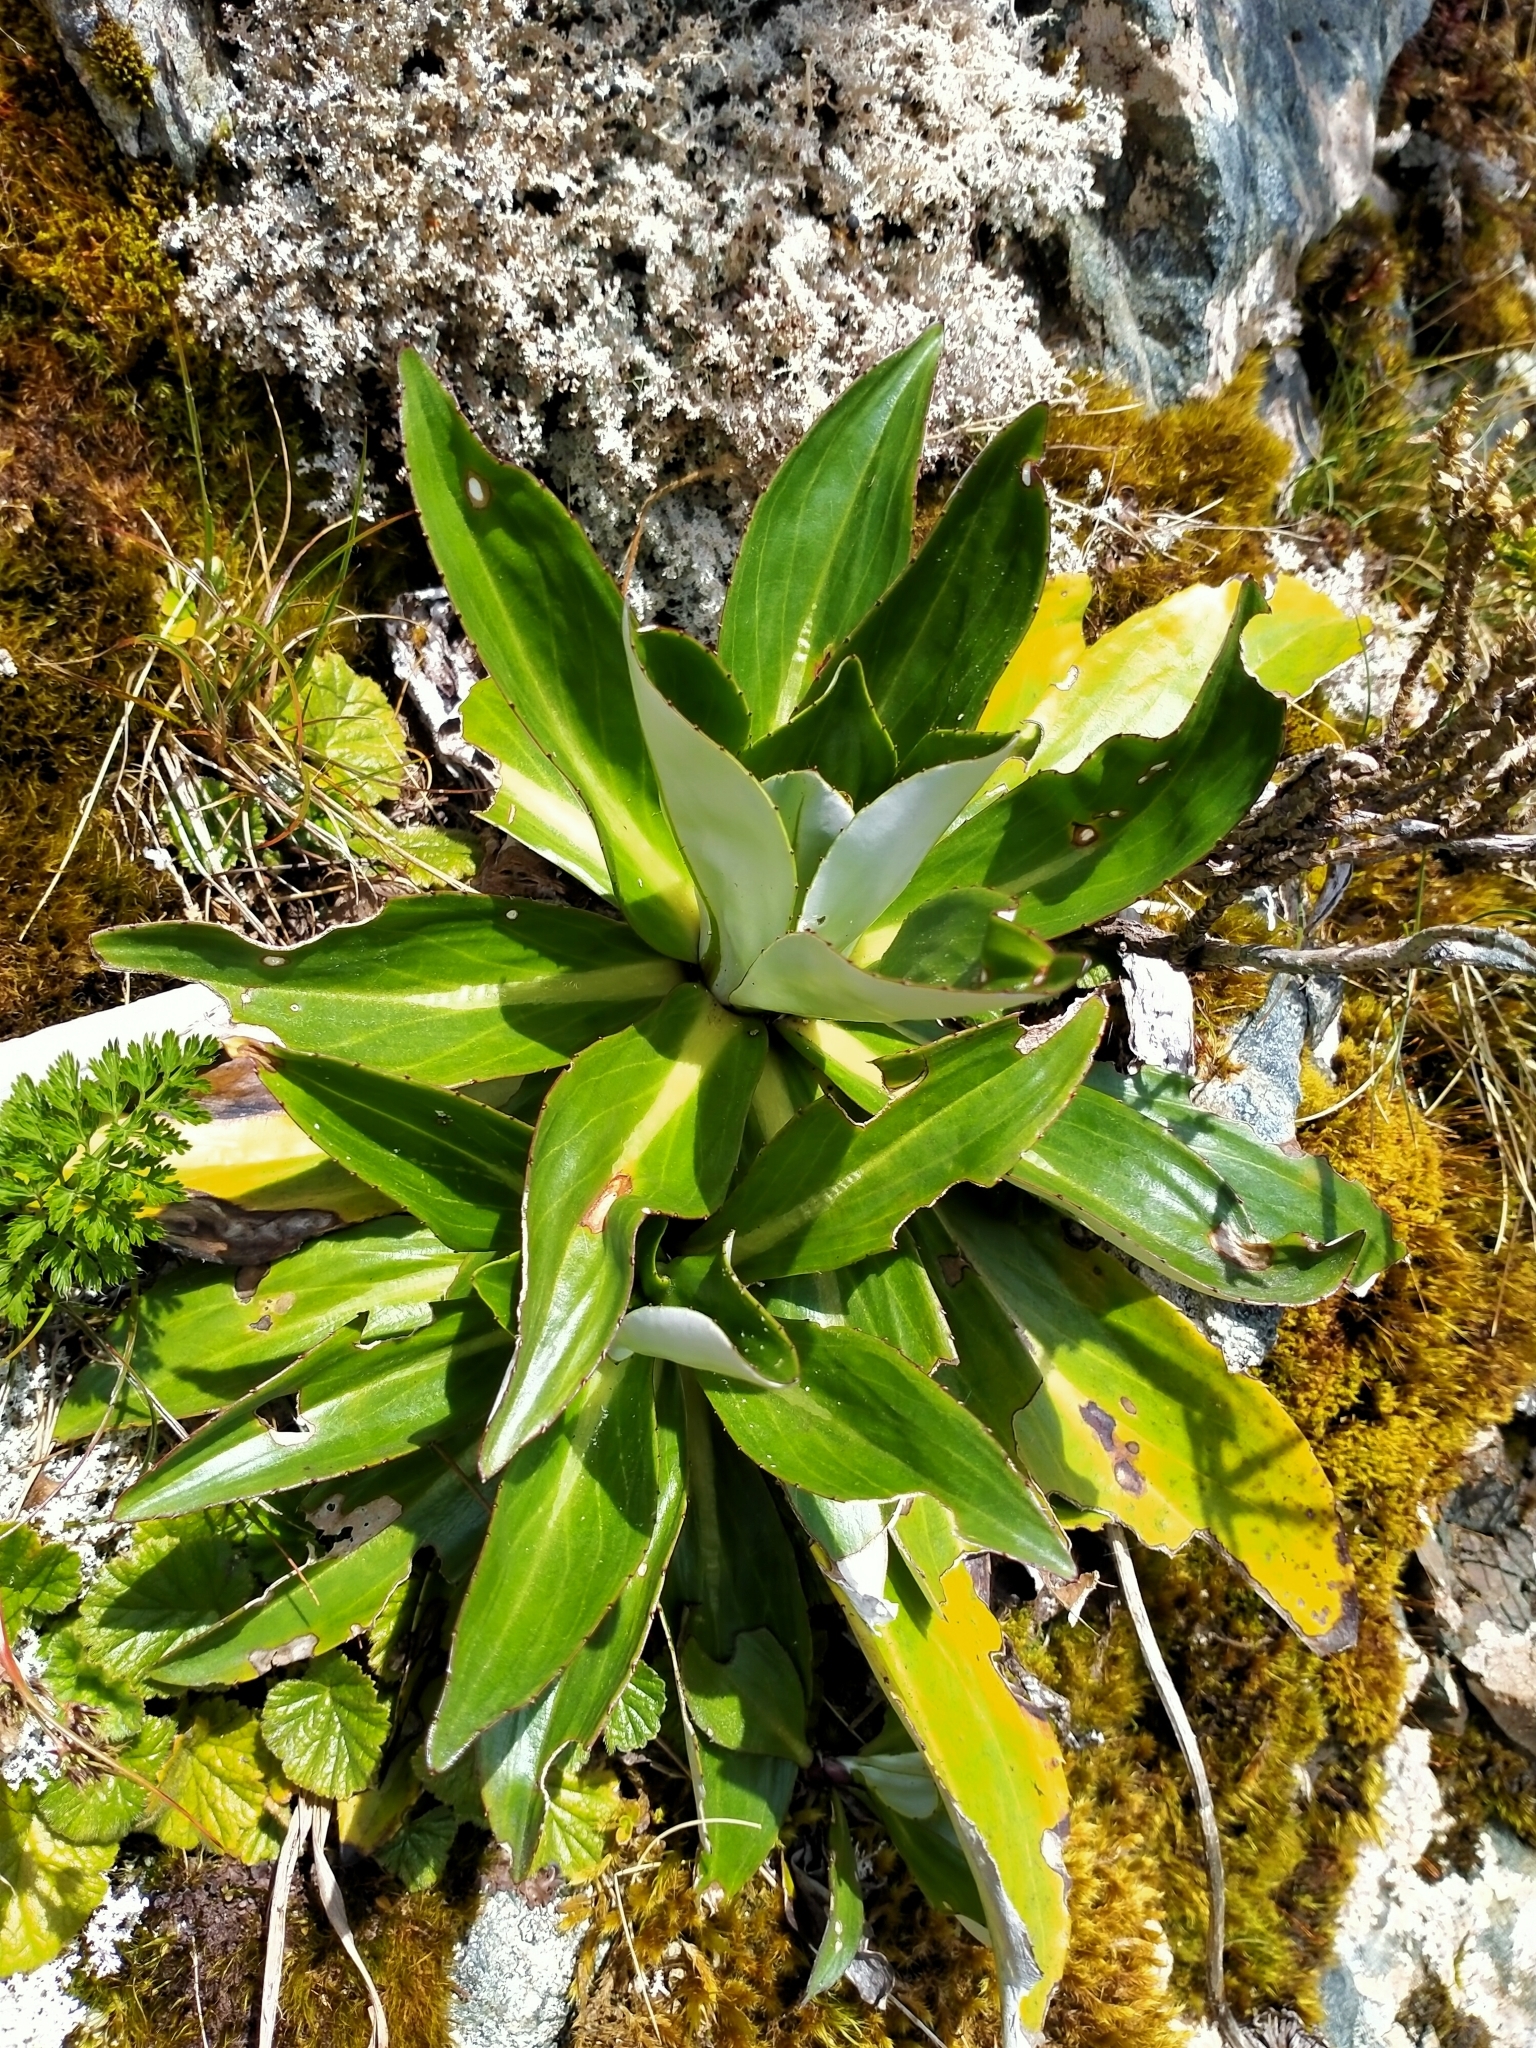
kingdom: Plantae
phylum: Tracheophyta
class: Magnoliopsida
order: Asterales
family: Asteraceae
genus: Celmisia
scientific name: Celmisia holosericea
